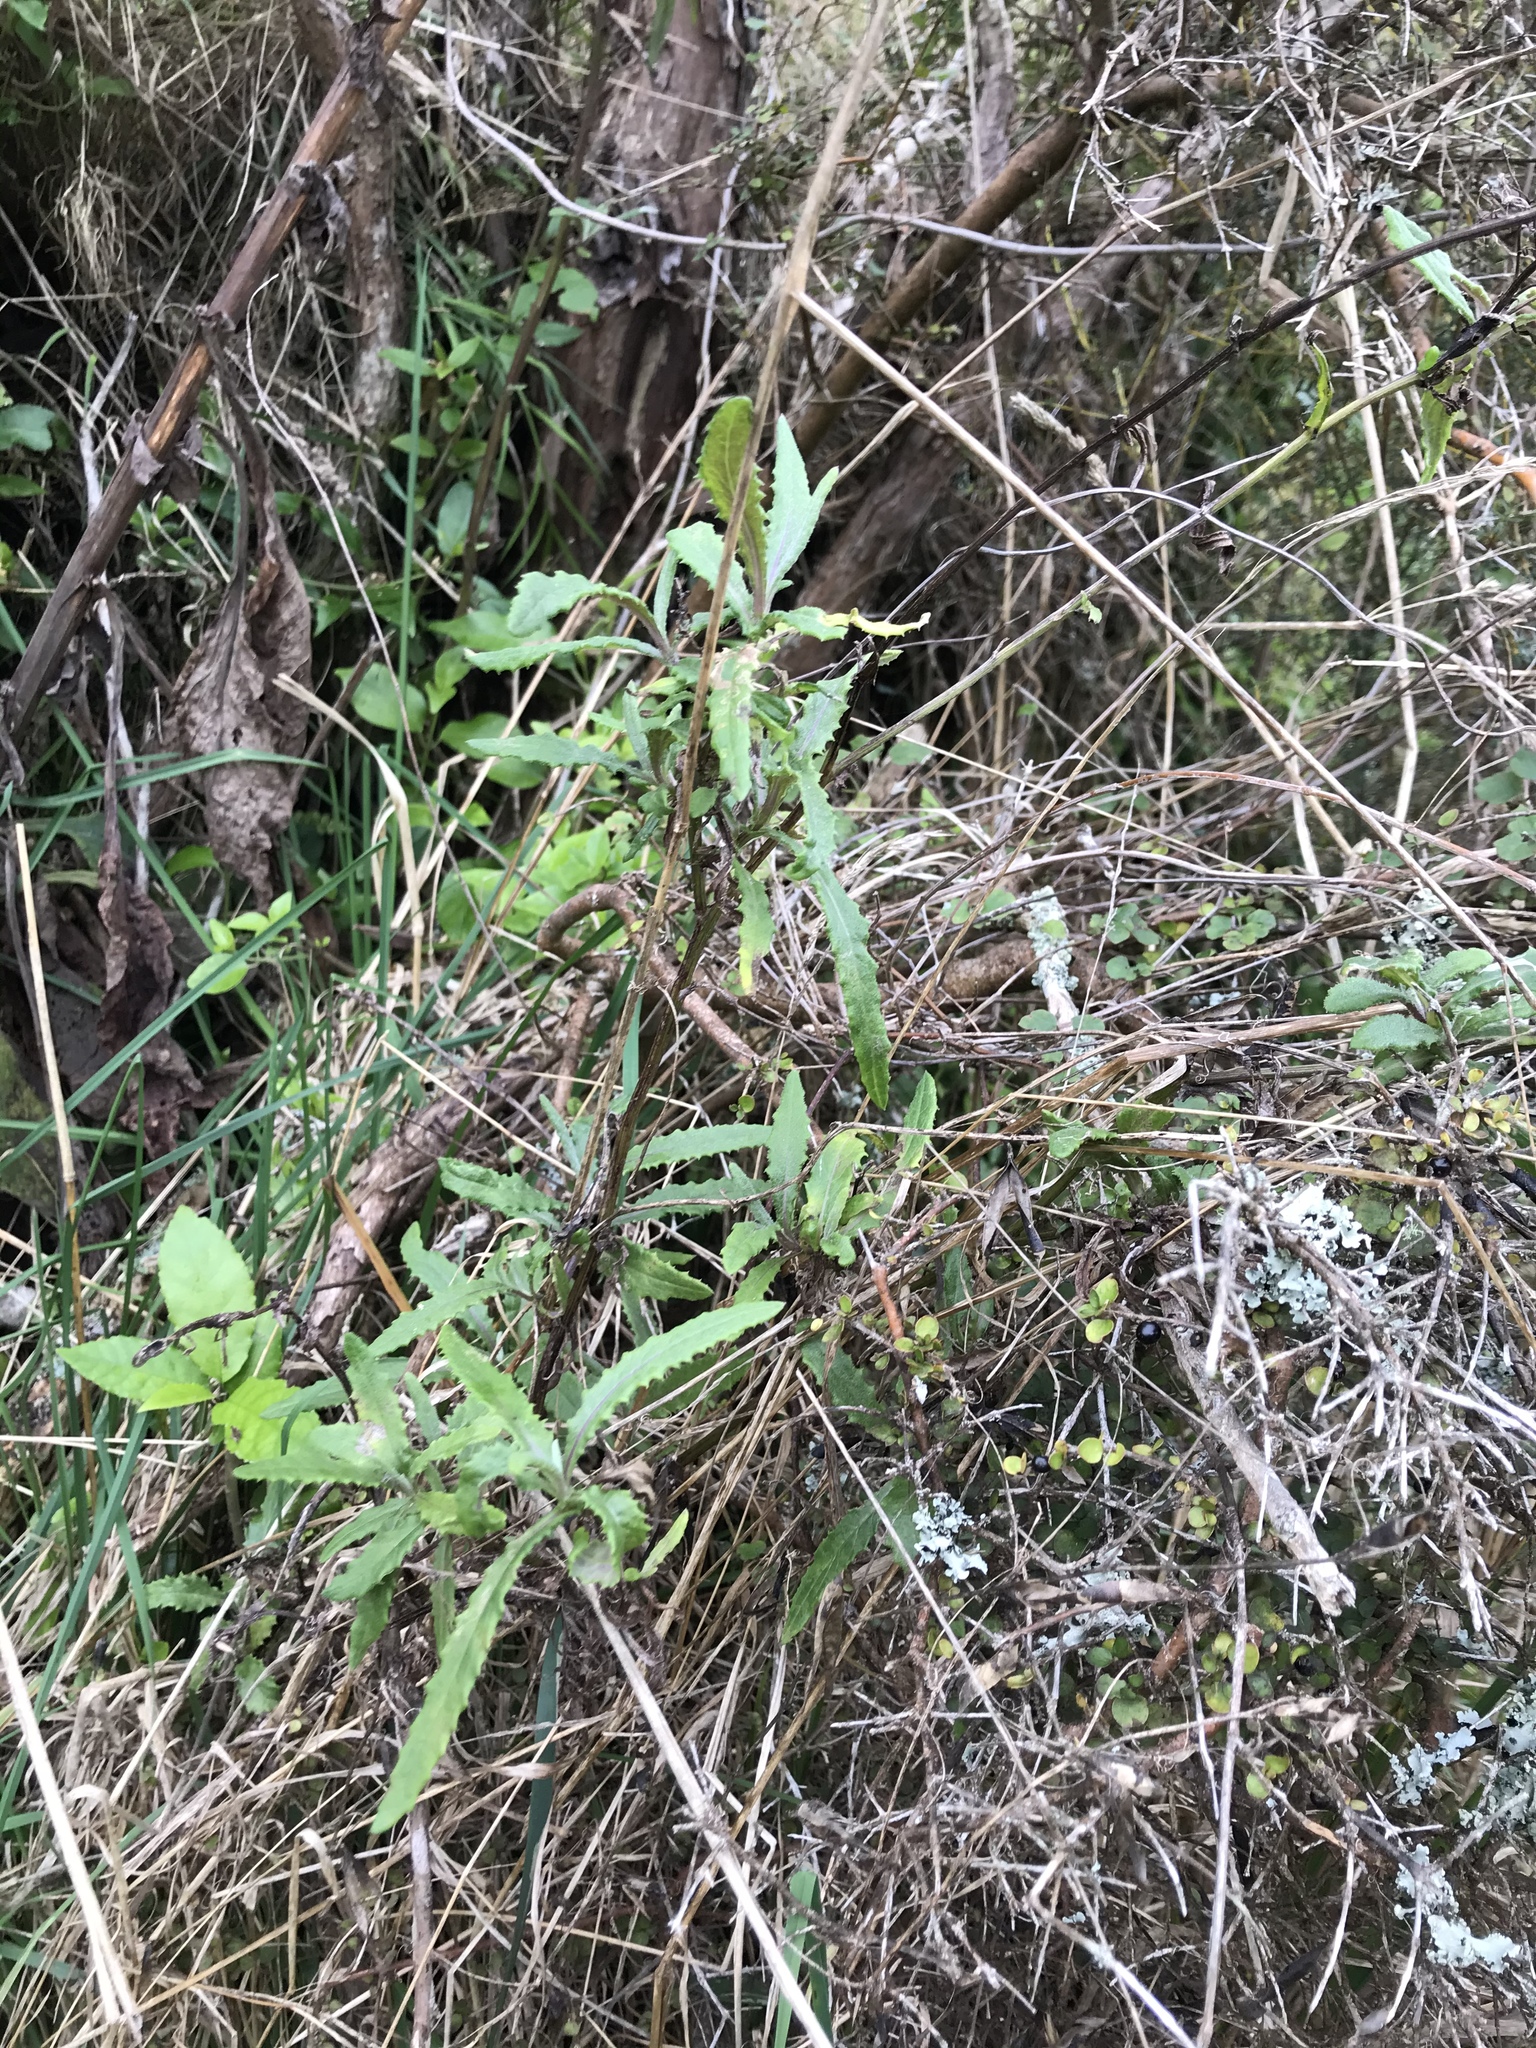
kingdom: Plantae
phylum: Tracheophyta
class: Magnoliopsida
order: Asterales
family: Asteraceae
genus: Senecio
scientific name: Senecio minimus
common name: Toothed fireweed
